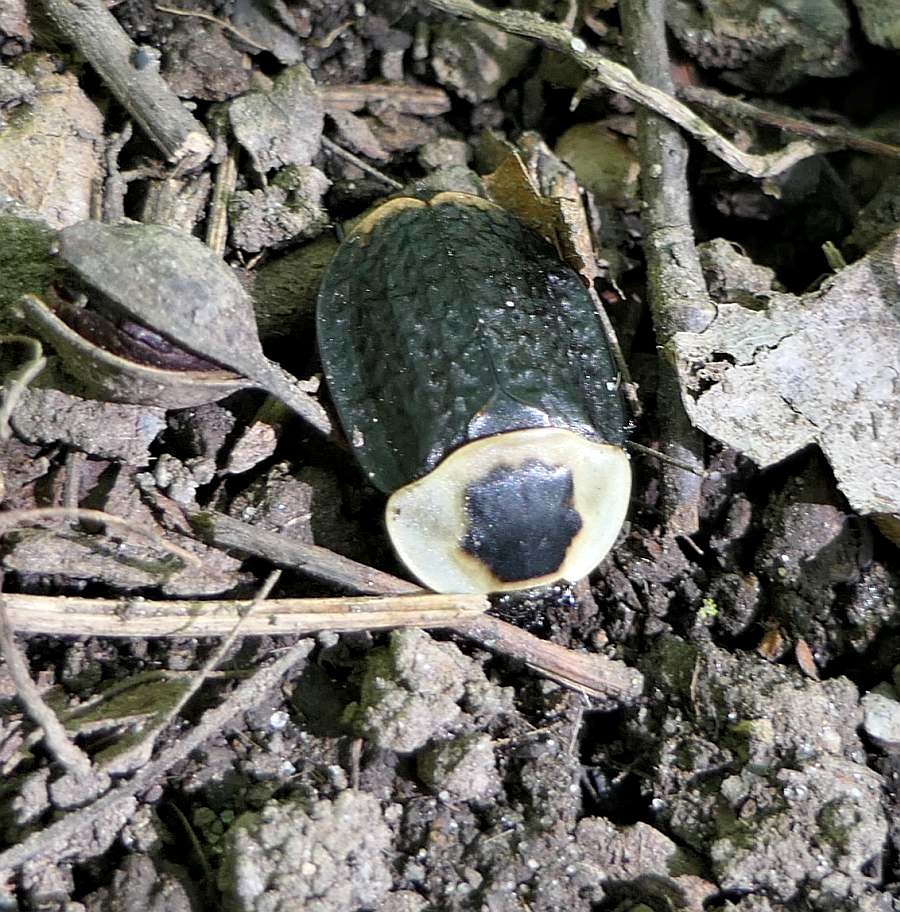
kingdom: Animalia
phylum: Arthropoda
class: Insecta
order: Coleoptera
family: Staphylinidae
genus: Necrophila
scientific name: Necrophila americana
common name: American carrion beetle
